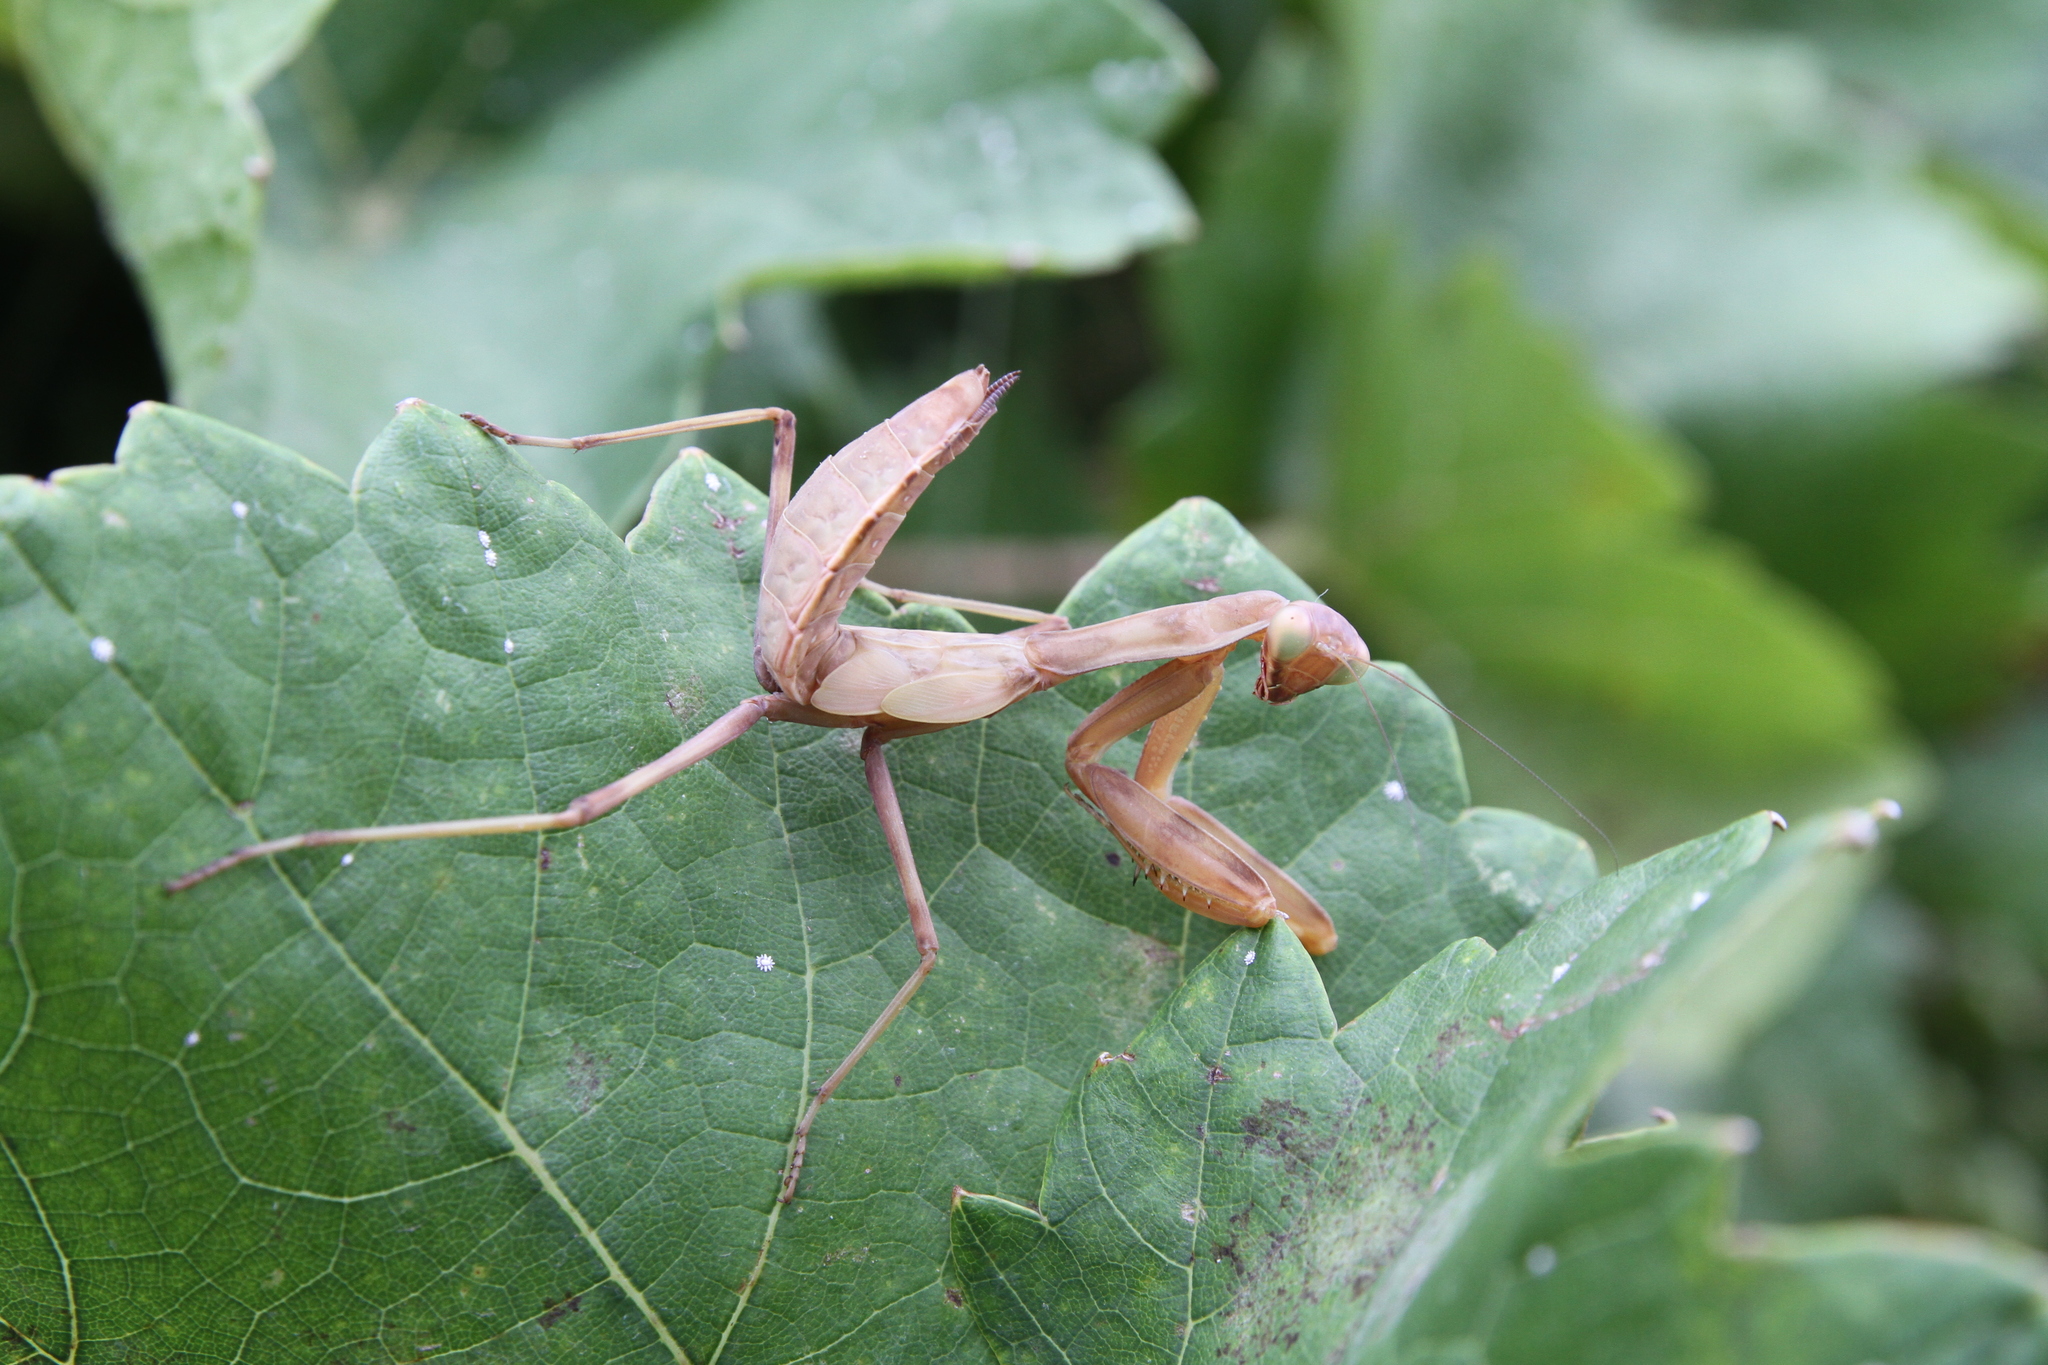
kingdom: Animalia
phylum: Arthropoda
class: Insecta
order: Mantodea
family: Mantidae
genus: Hierodula
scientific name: Hierodula transcaucasica
